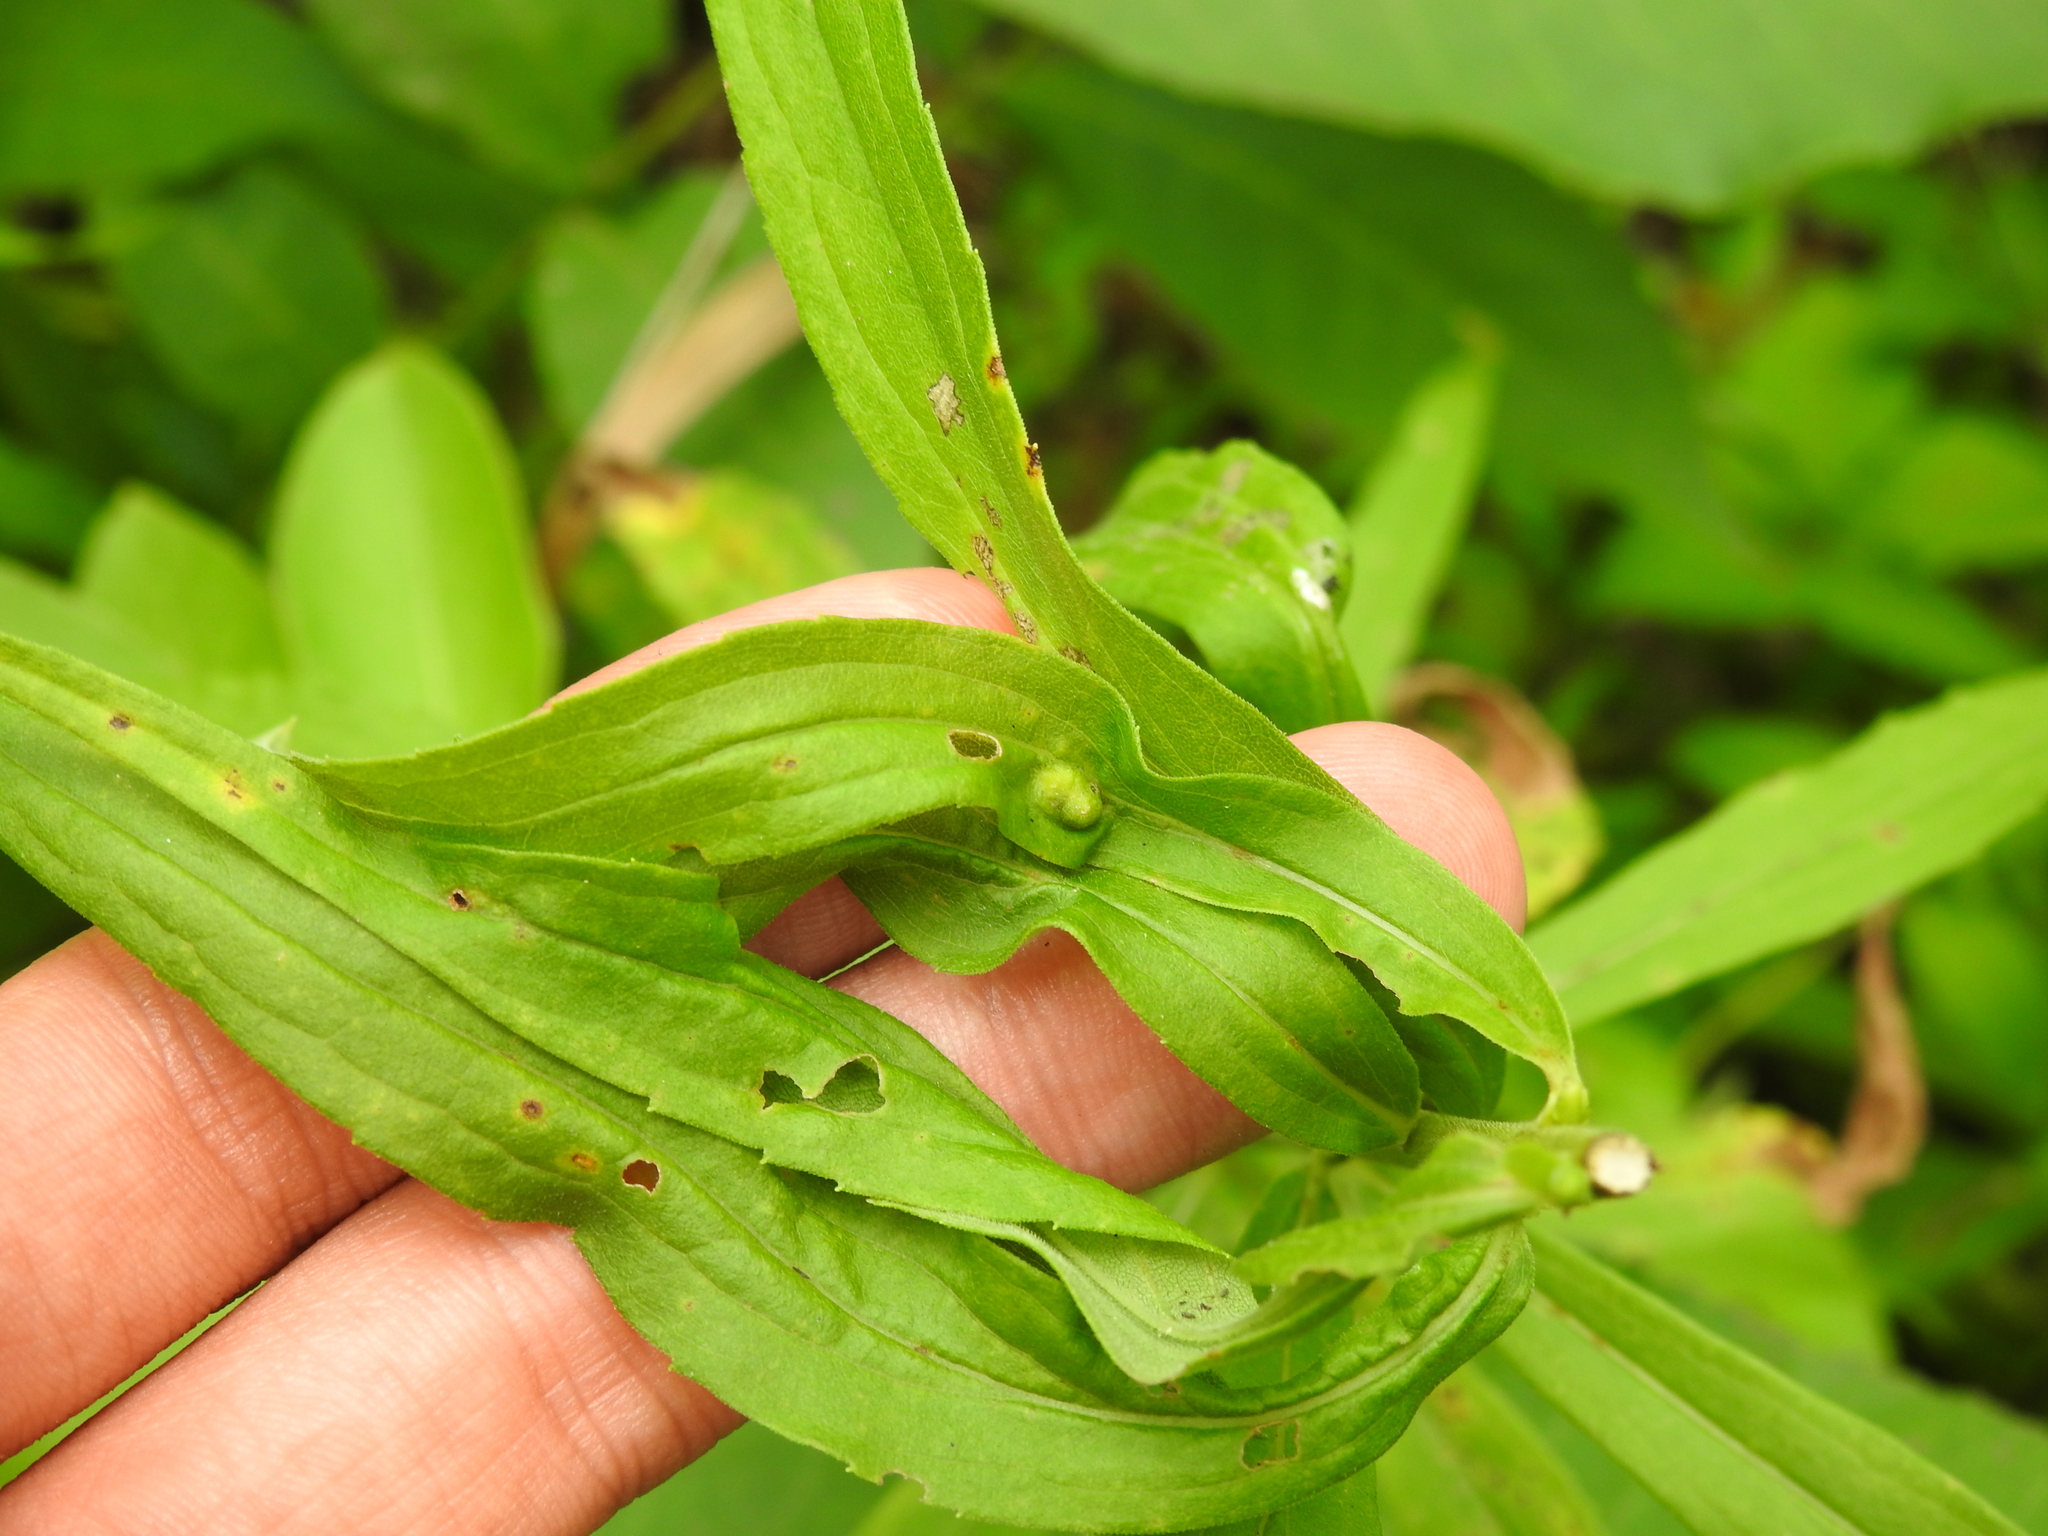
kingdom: Animalia
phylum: Arthropoda
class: Insecta
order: Diptera
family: Cecidomyiidae
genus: Asphondylia
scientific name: Asphondylia solidaginis
